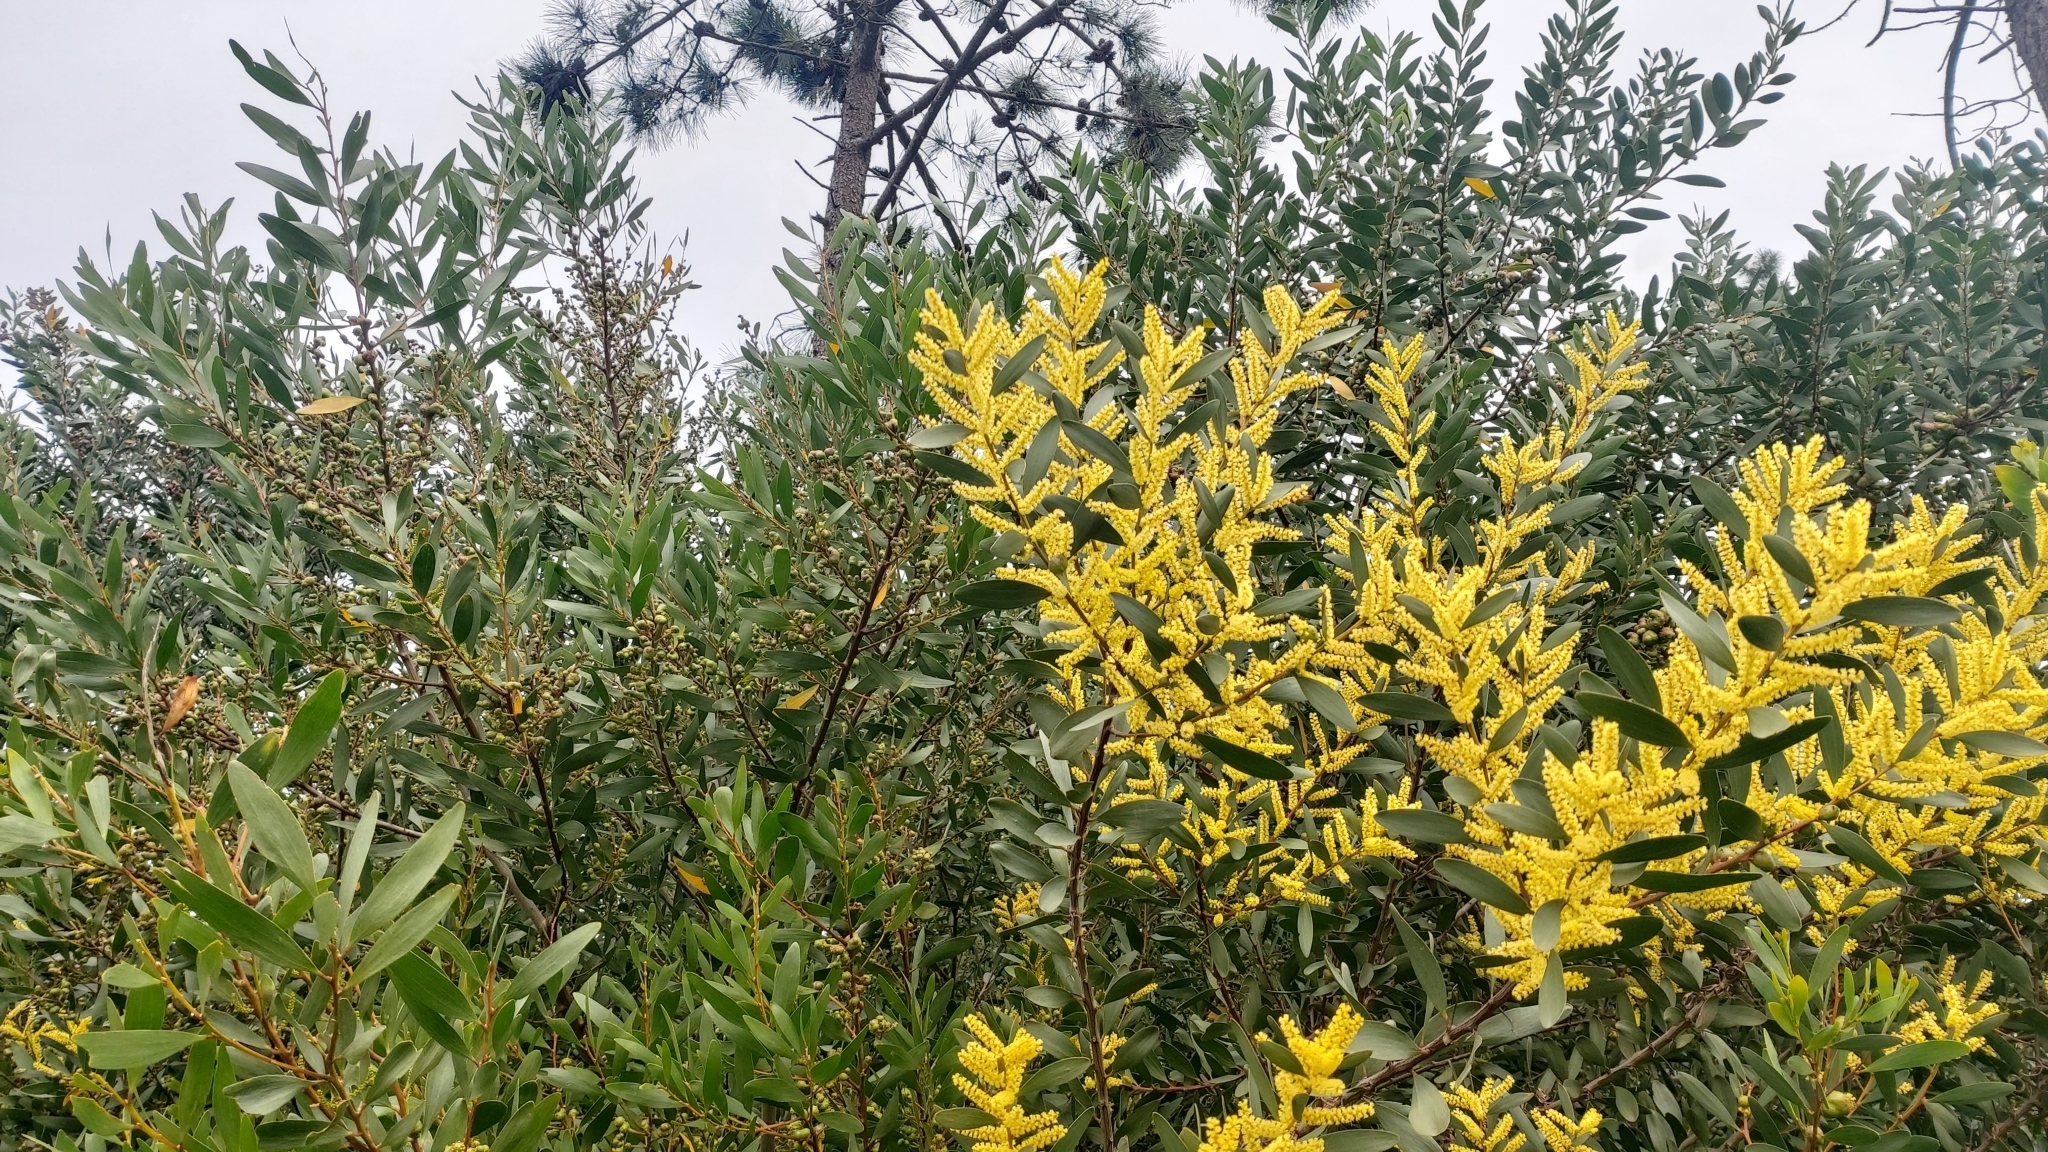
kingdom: Plantae
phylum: Tracheophyta
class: Magnoliopsida
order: Fabales
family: Fabaceae
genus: Acacia
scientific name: Acacia longifolia
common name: Sydney golden wattle
